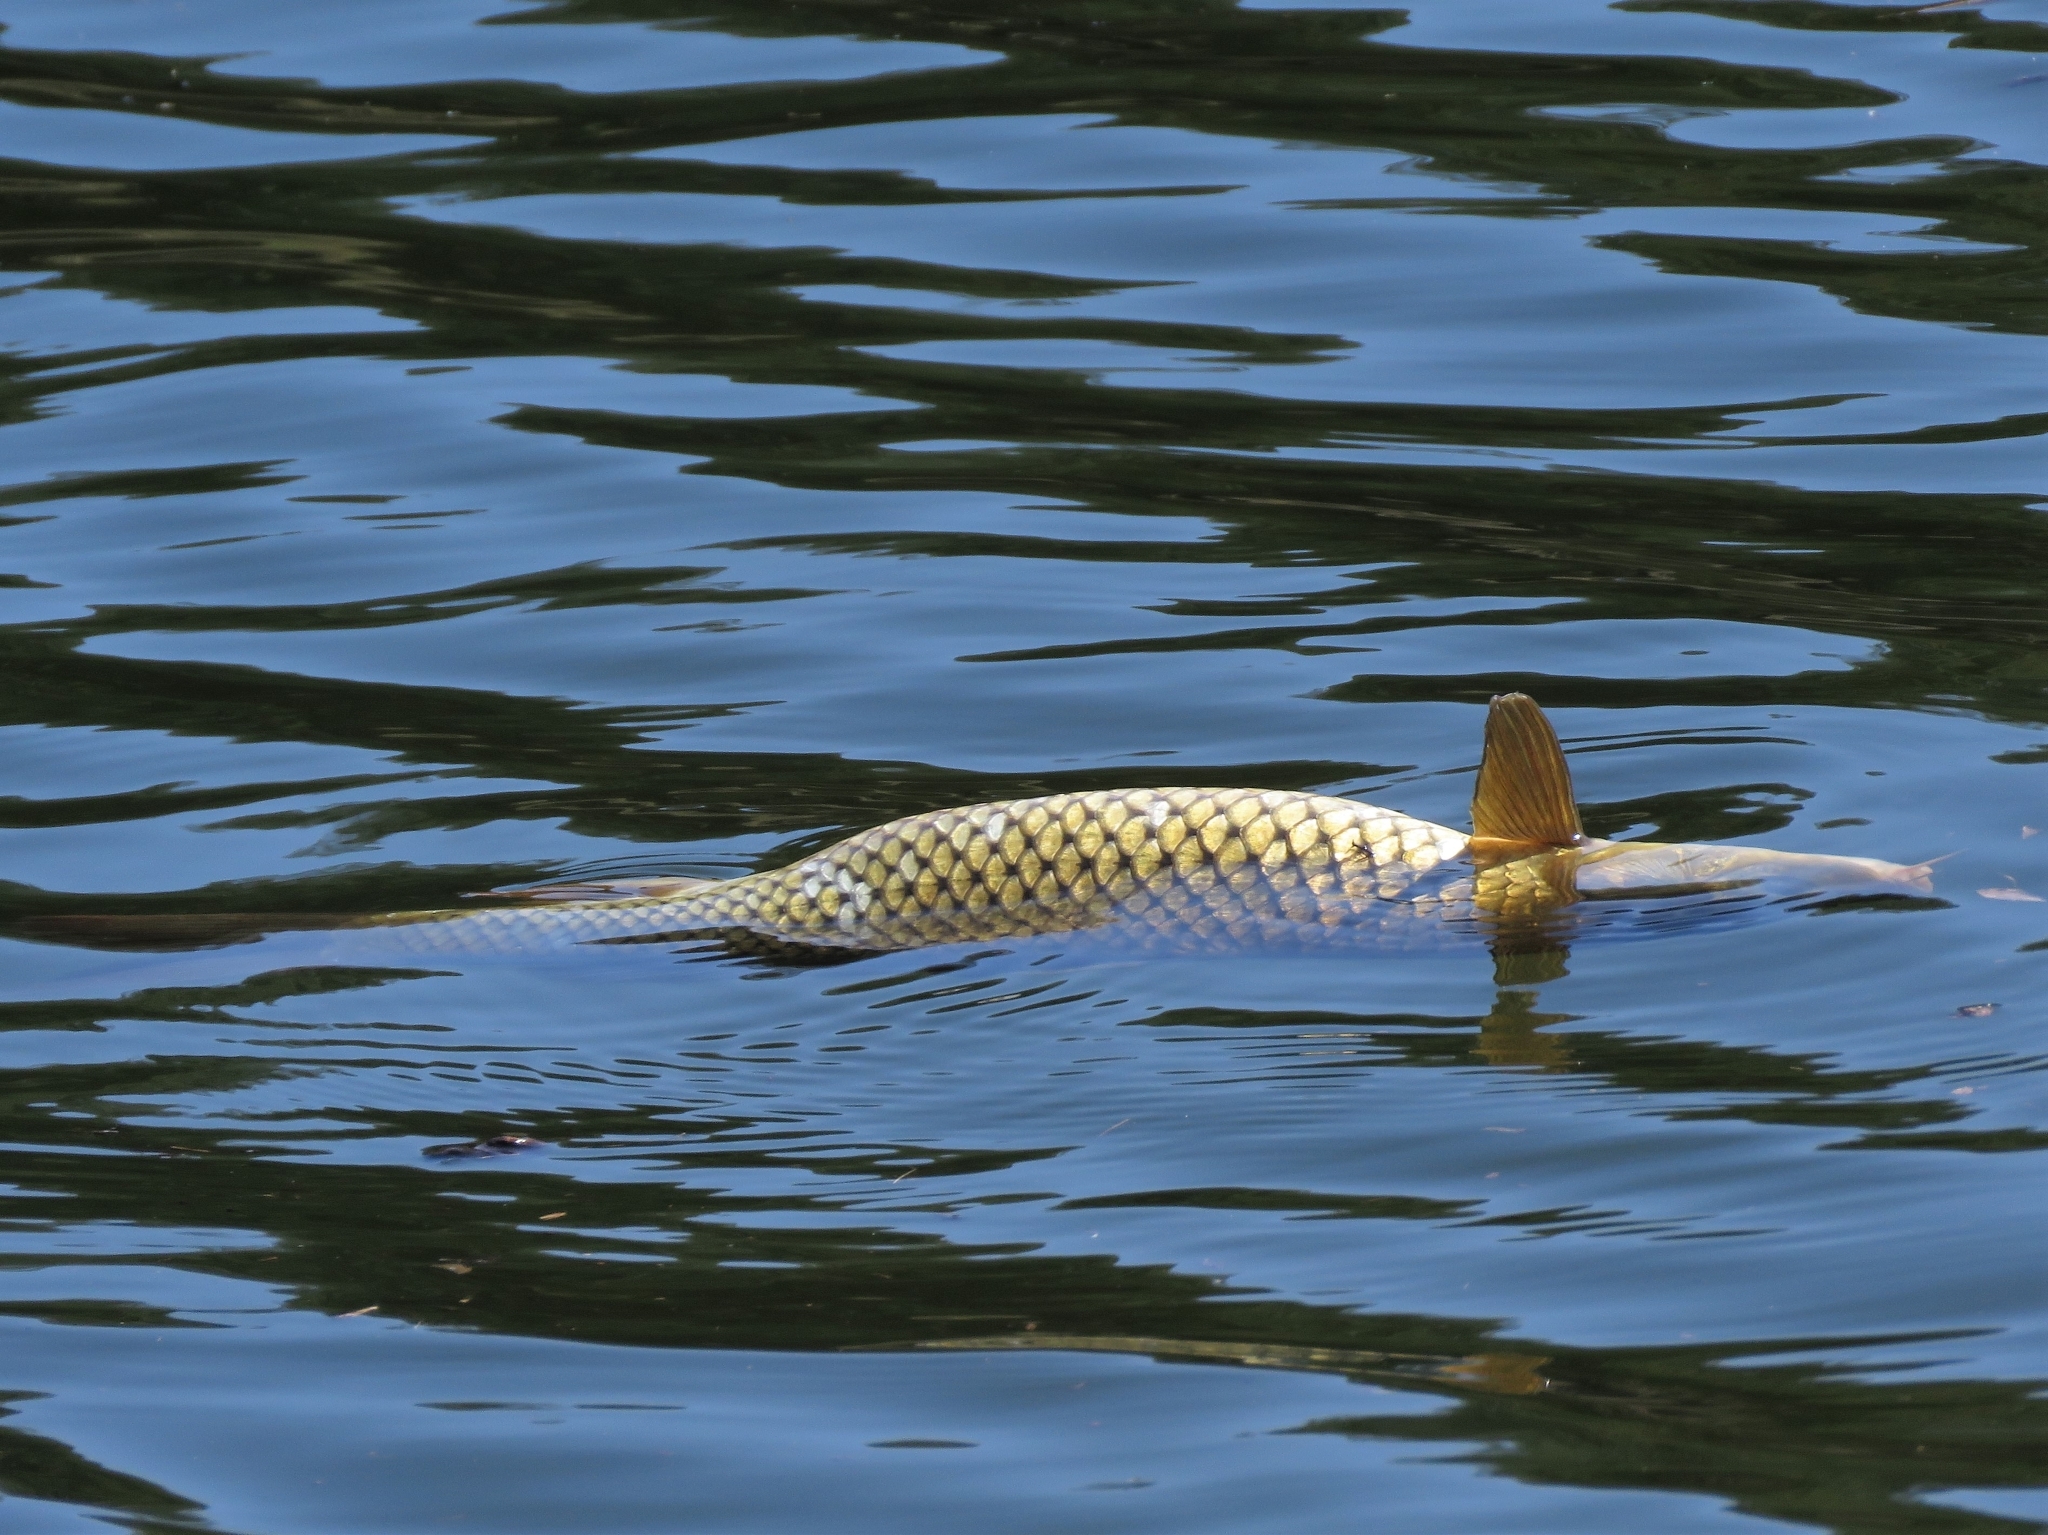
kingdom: Animalia
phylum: Chordata
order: Cypriniformes
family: Cyprinidae
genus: Cyprinus
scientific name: Cyprinus carpio
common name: Common carp
